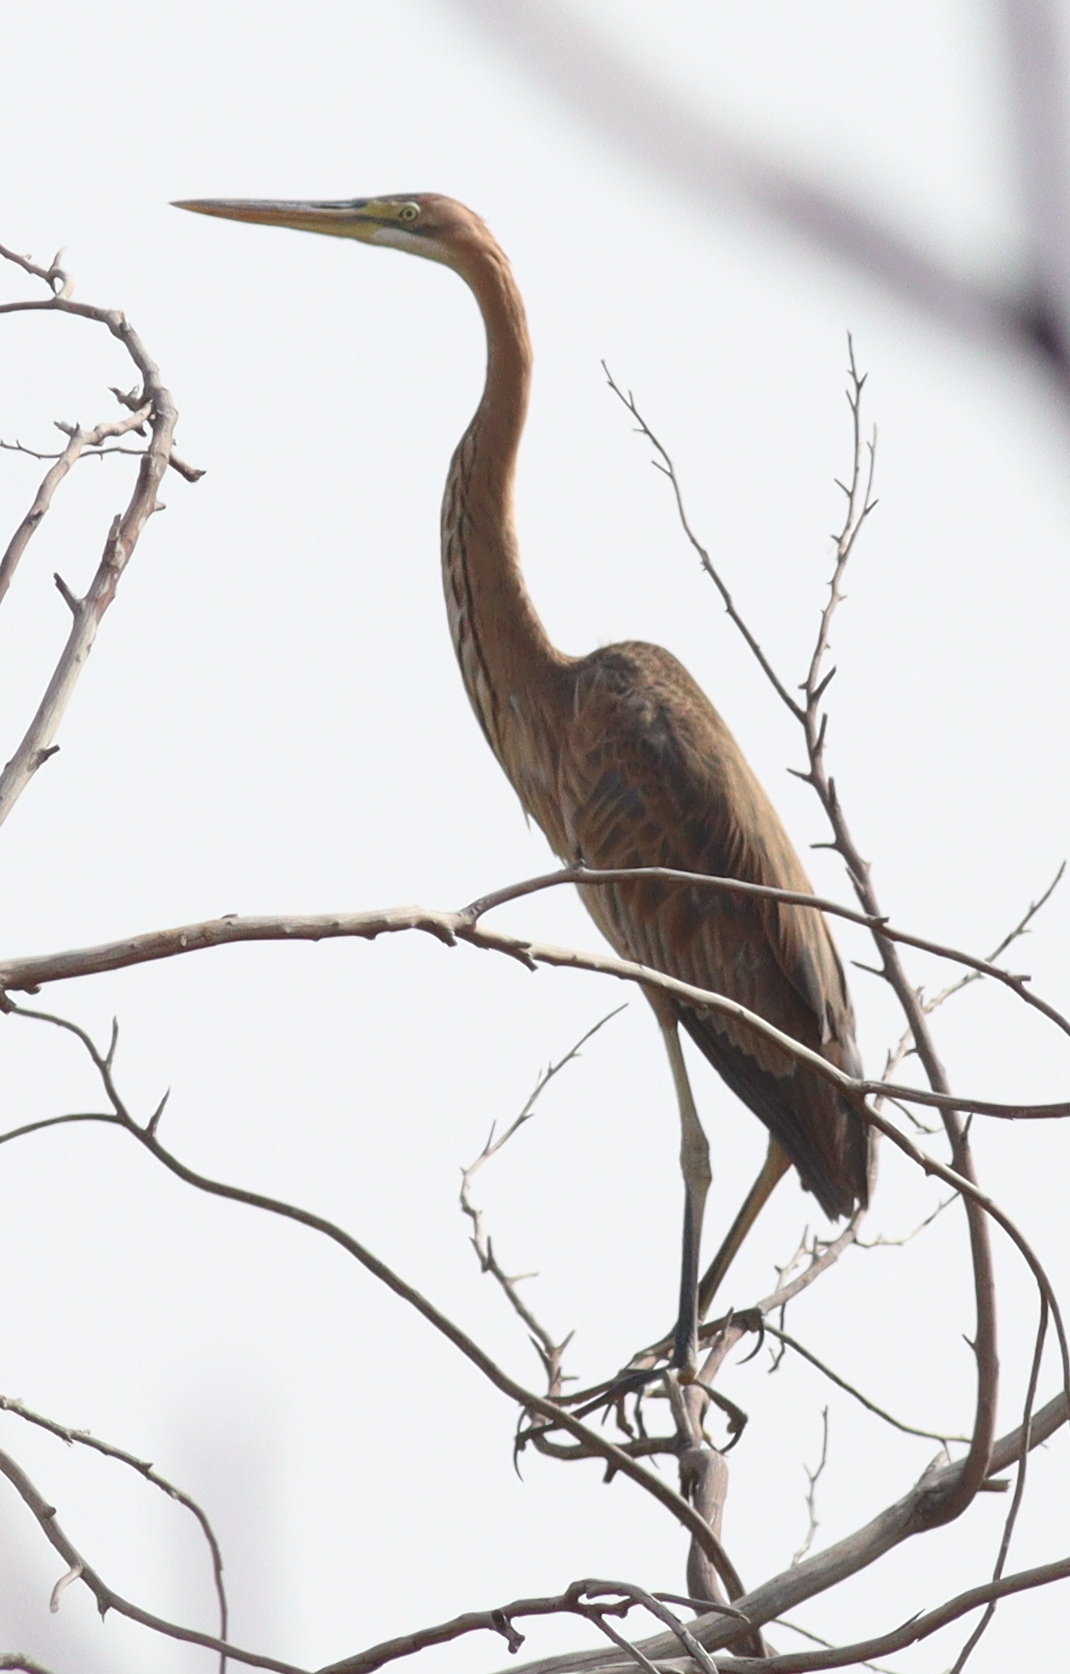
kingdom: Animalia
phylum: Chordata
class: Aves
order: Pelecaniformes
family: Ardeidae
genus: Ardea
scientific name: Ardea purpurea
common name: Purple heron
